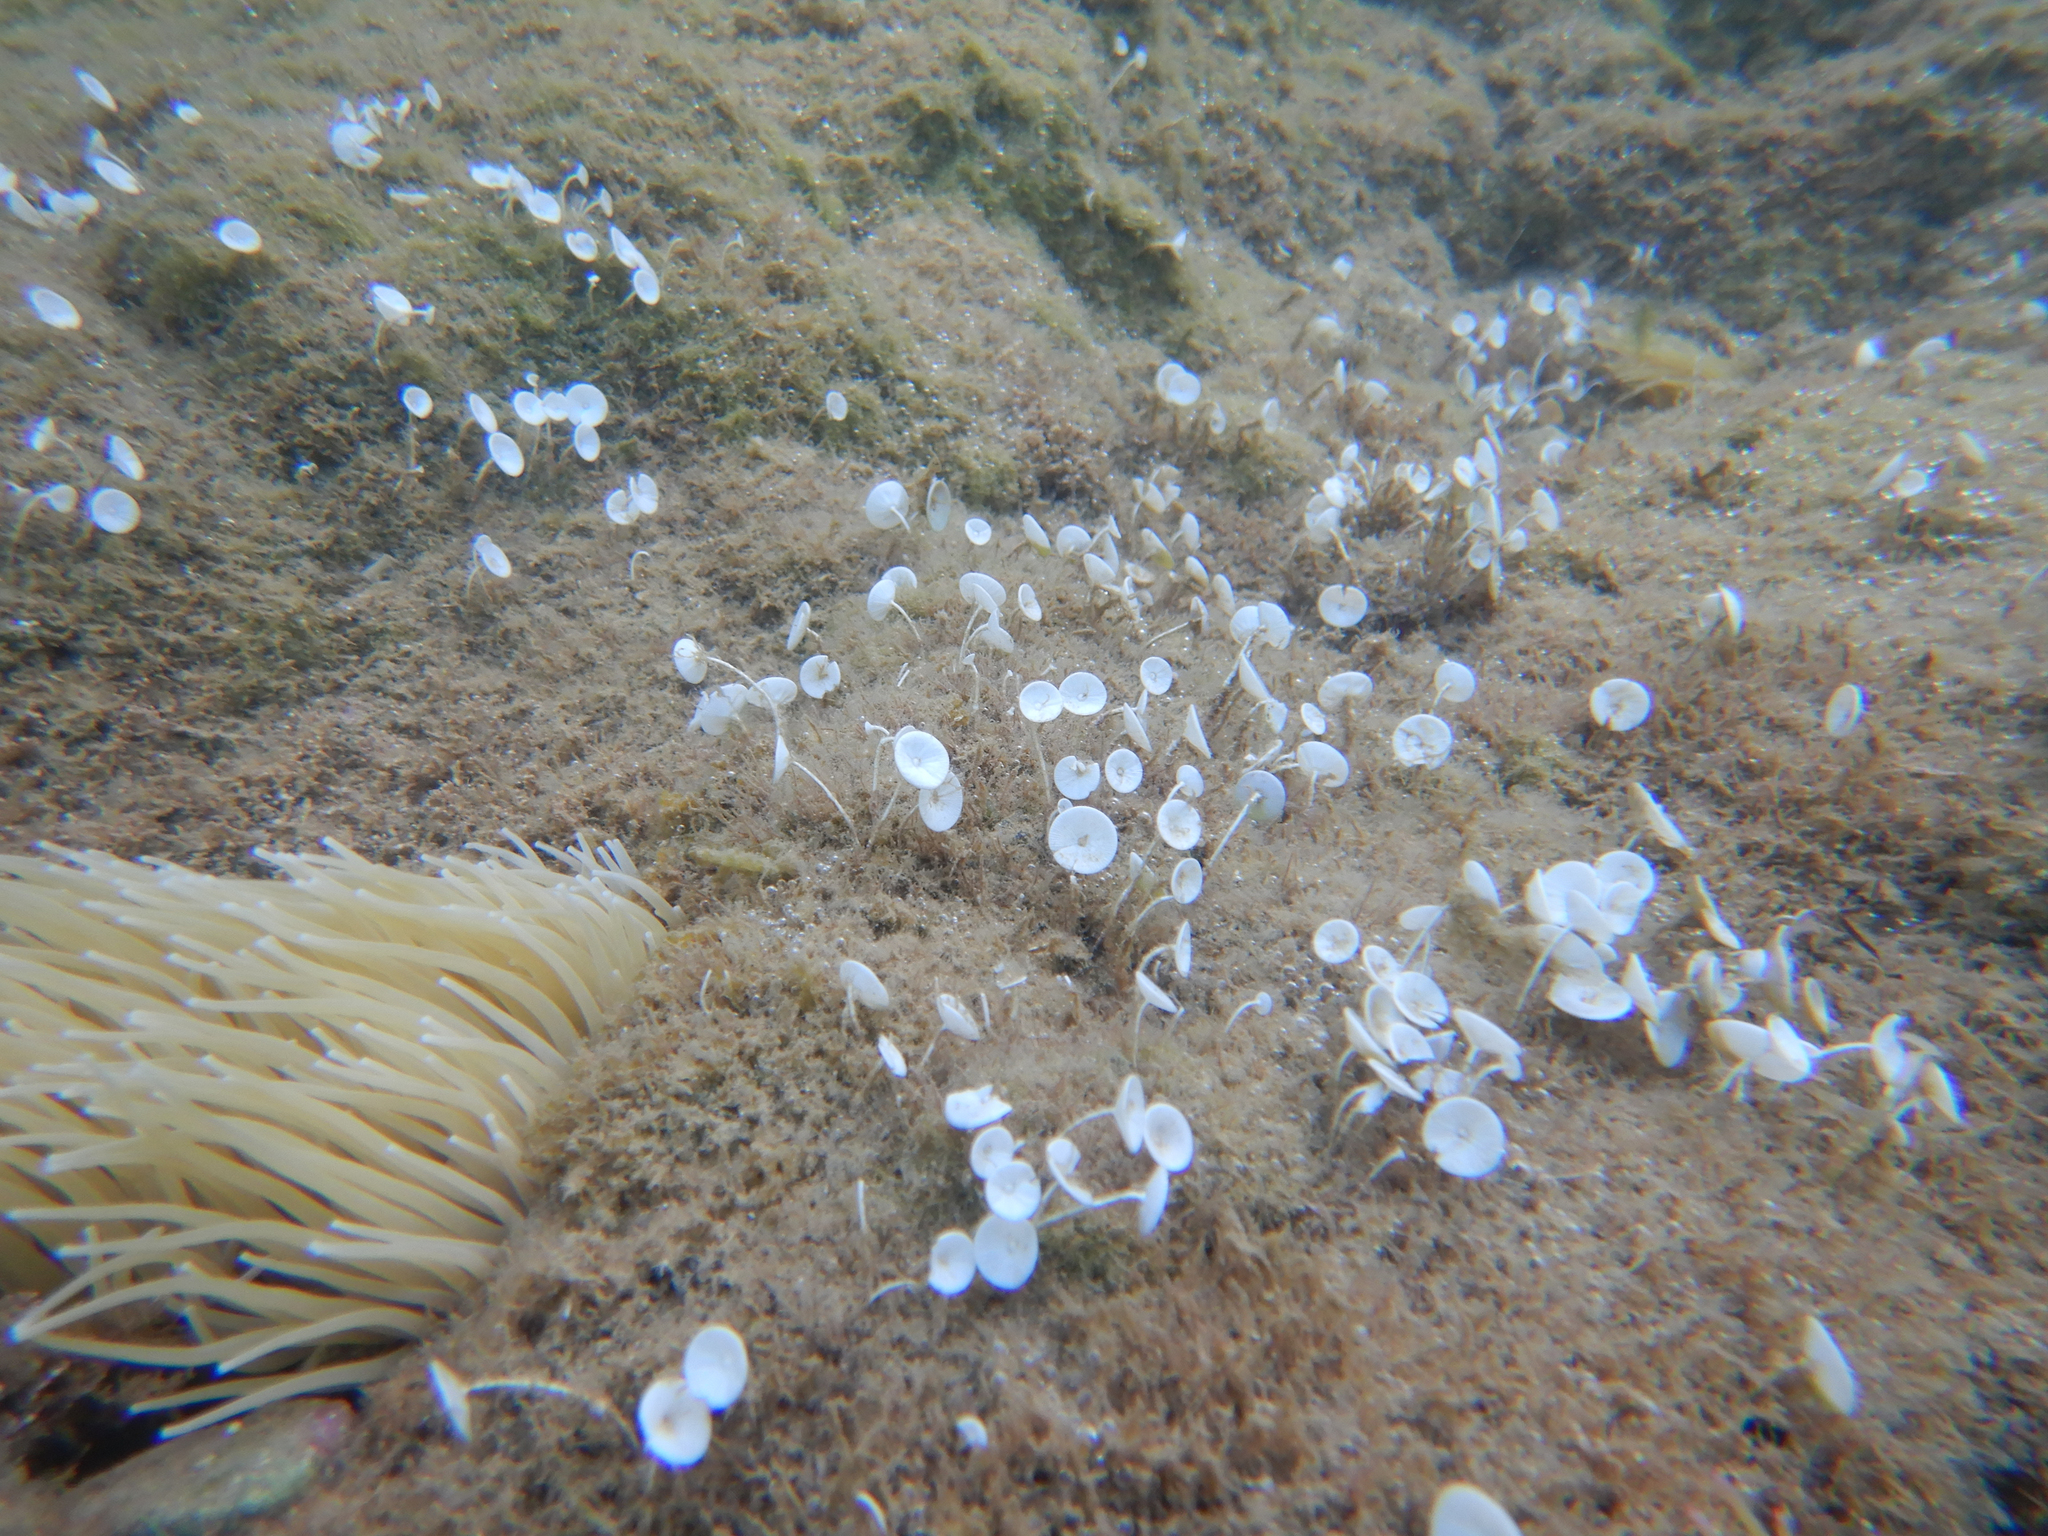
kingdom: Plantae
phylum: Chlorophyta
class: Ulvophyceae
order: Dasycladales
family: Polyphysaceae
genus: Acetabularia
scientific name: Acetabularia acetabulum
